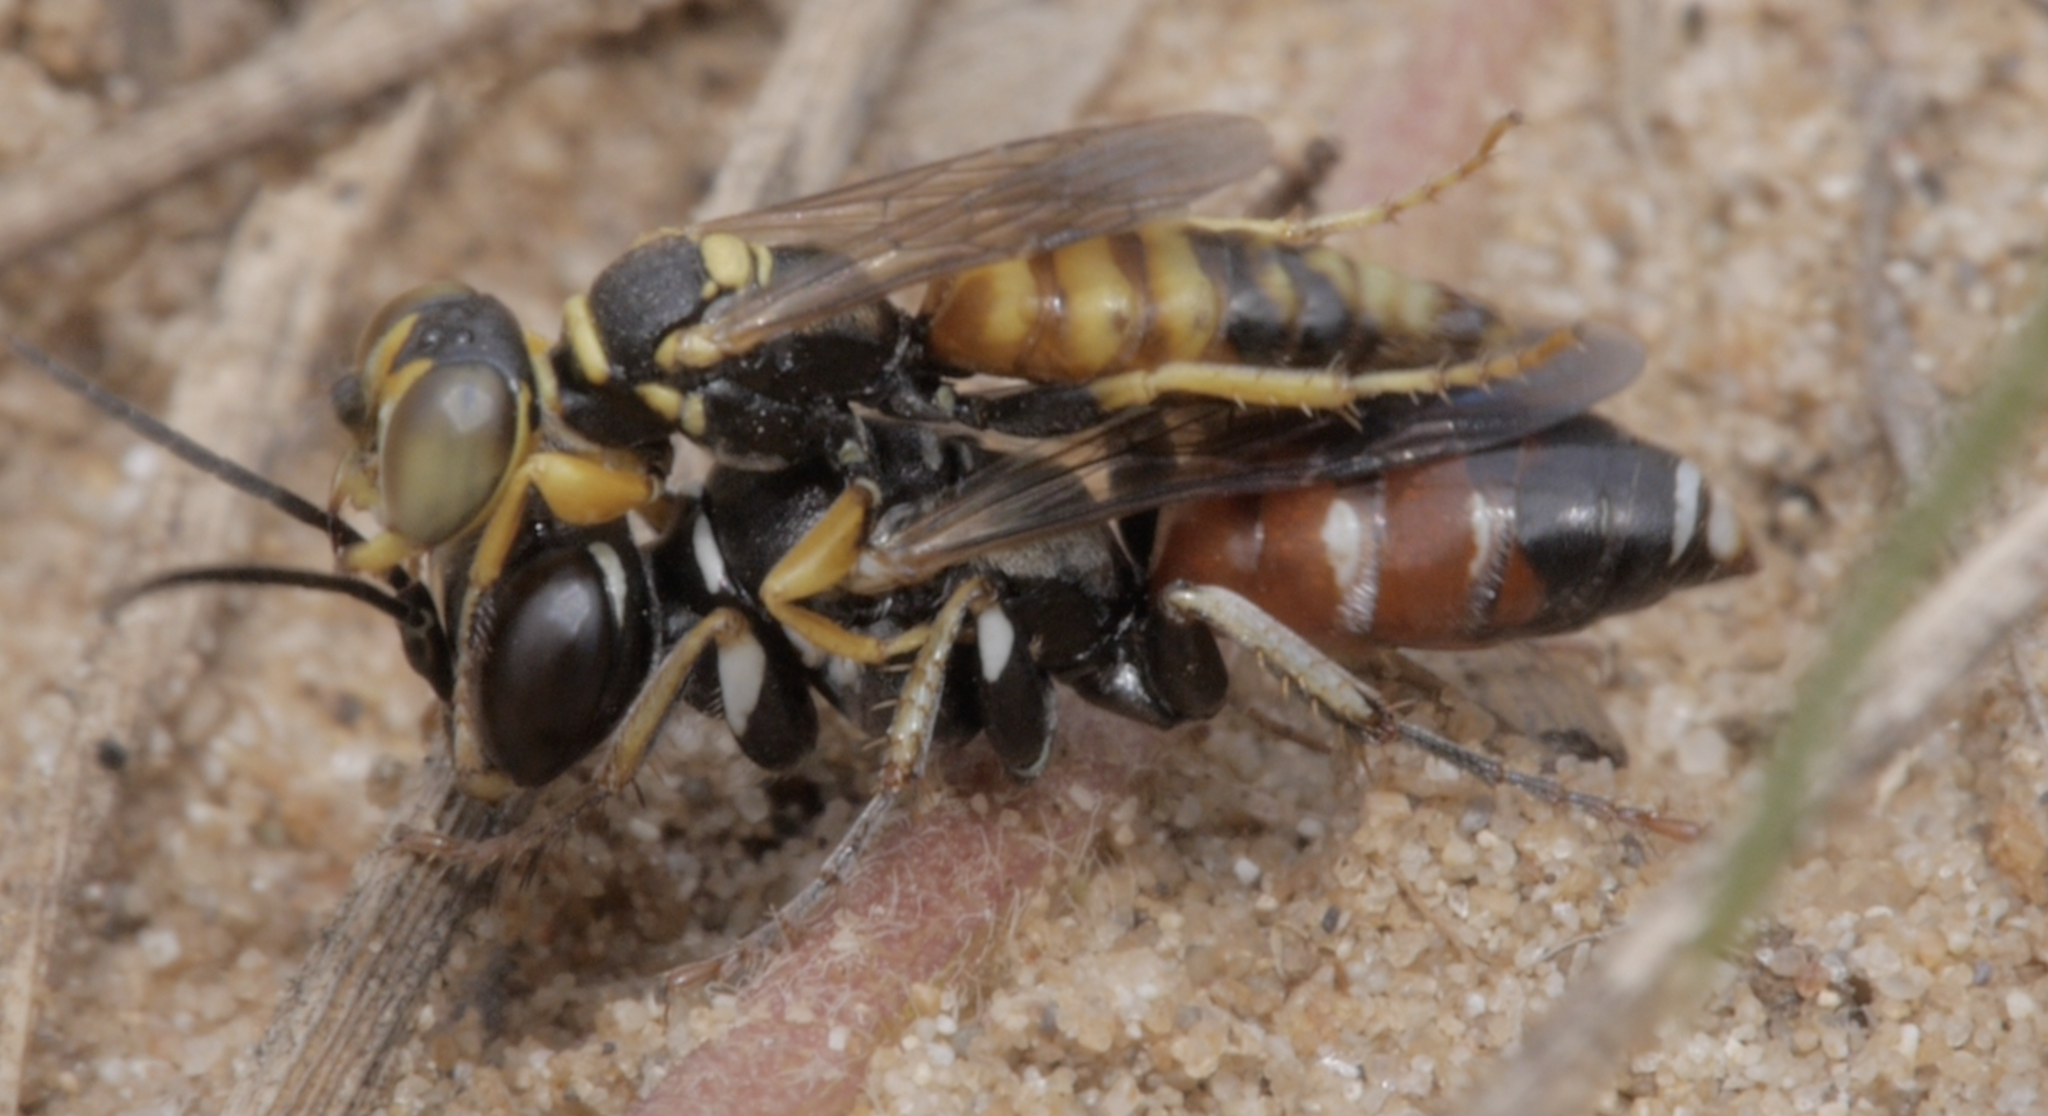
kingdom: Animalia
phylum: Arthropoda
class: Insecta
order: Hymenoptera
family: Crabronidae
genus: Dinetus
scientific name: Dinetus pictus
